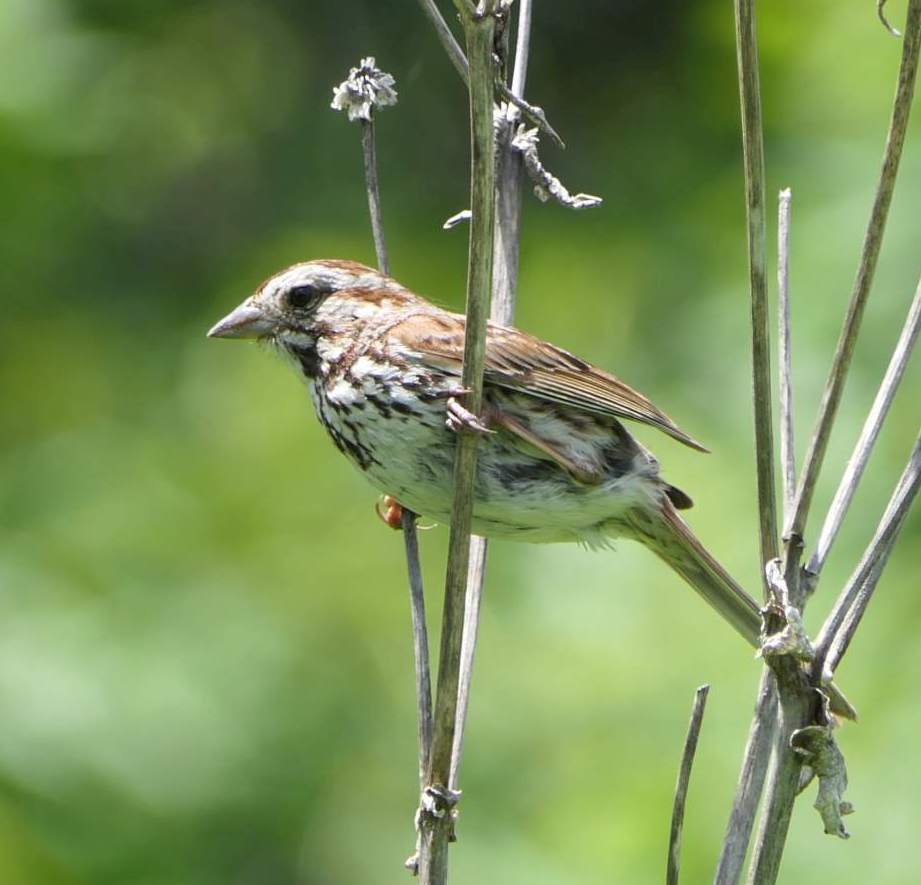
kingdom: Animalia
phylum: Chordata
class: Aves
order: Passeriformes
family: Passerellidae
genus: Melospiza
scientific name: Melospiza melodia
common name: Song sparrow
